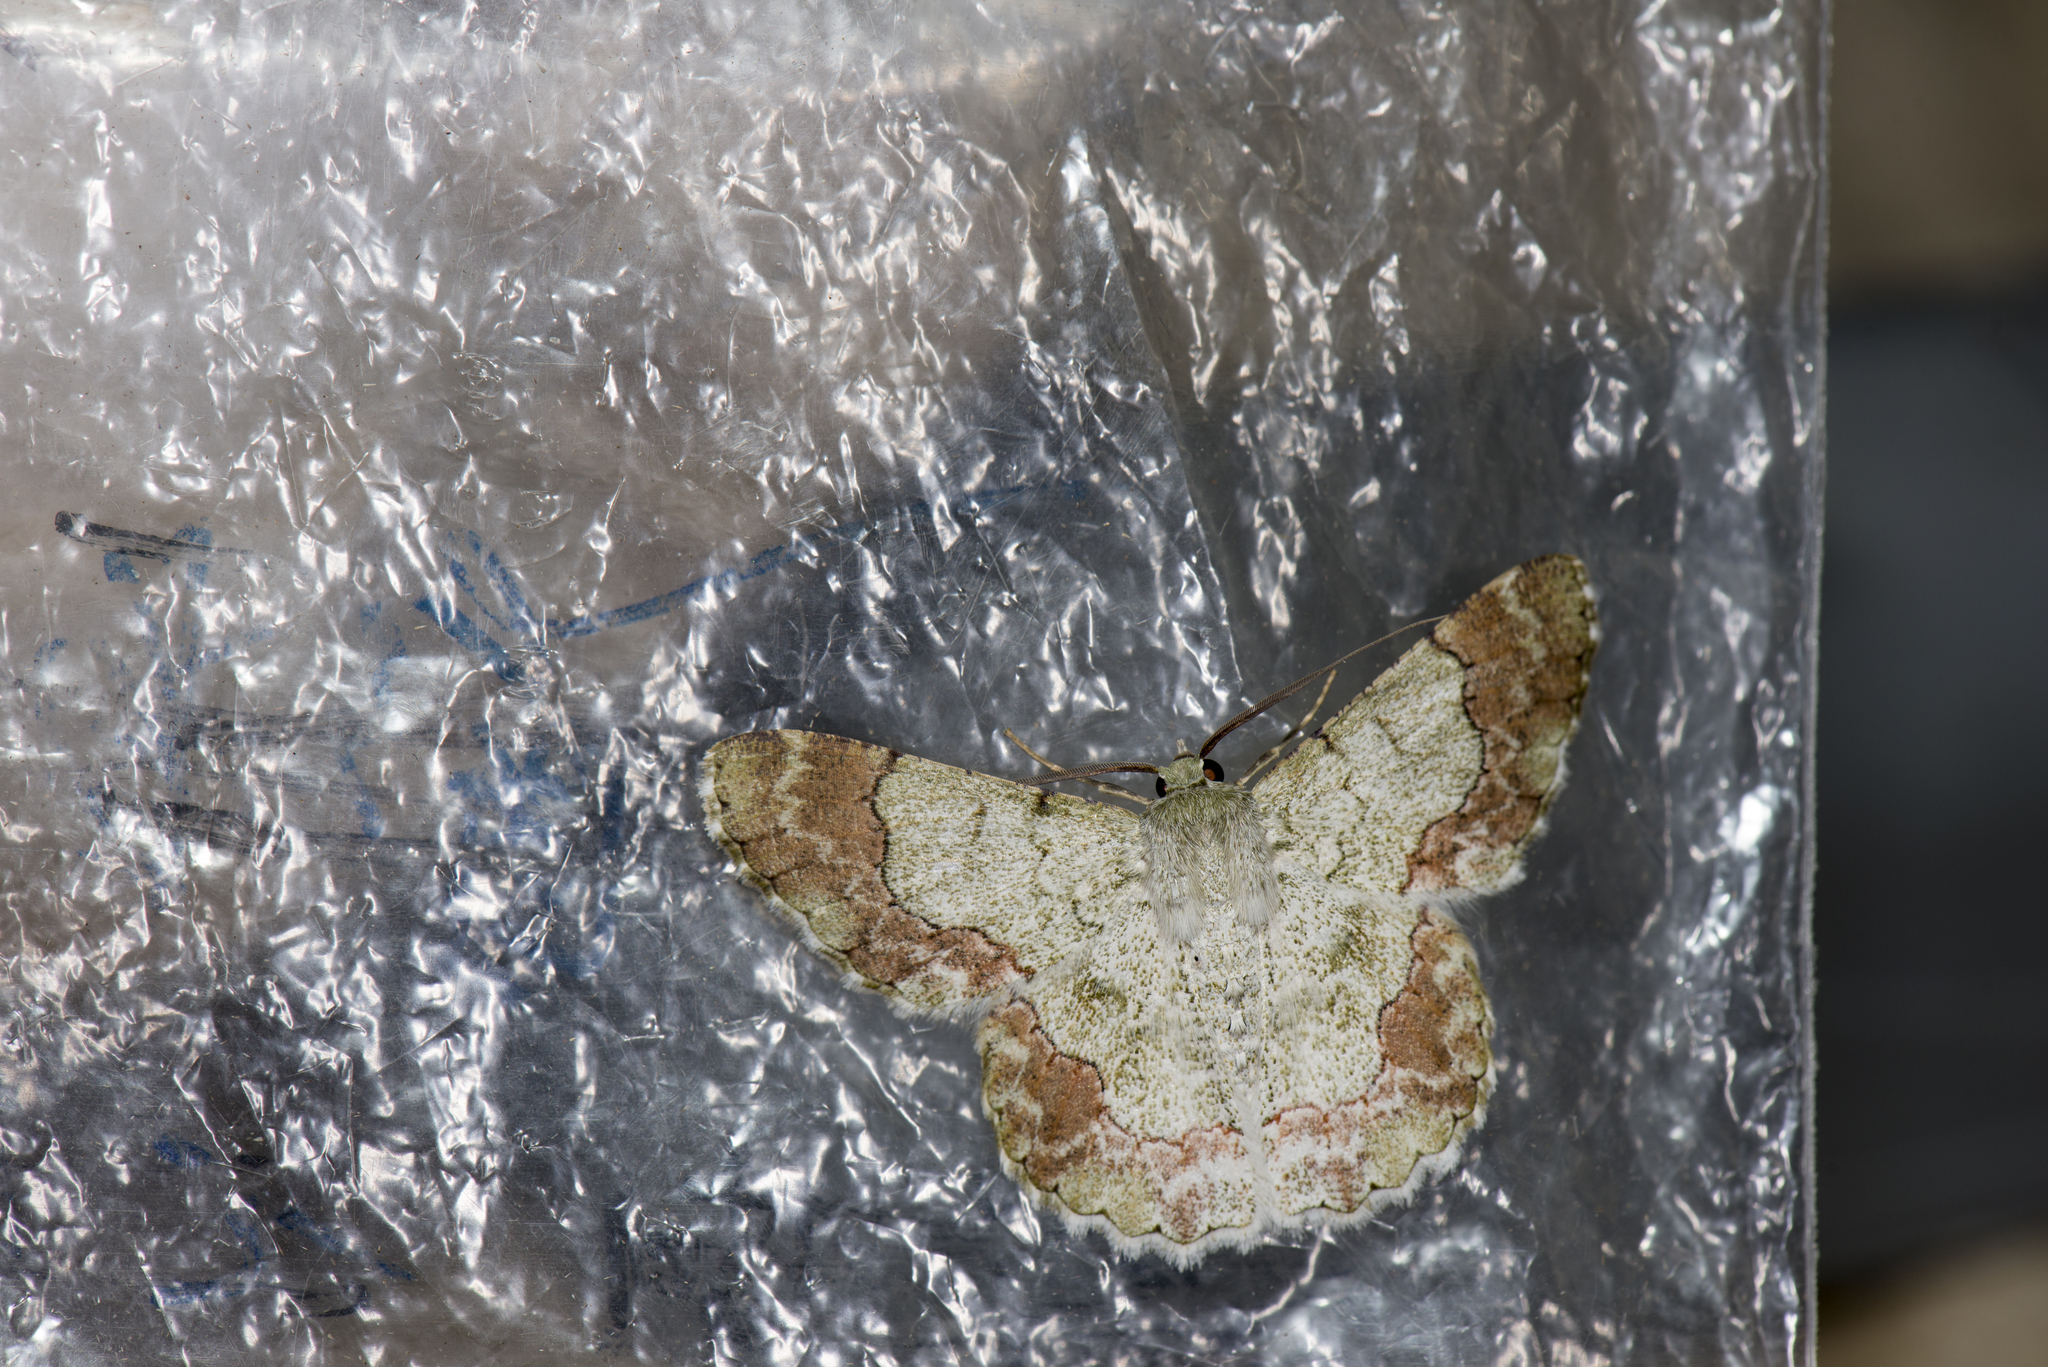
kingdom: Animalia
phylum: Arthropoda
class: Insecta
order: Lepidoptera
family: Geometridae
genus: Pingasa
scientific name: Pingasa ruginaria
